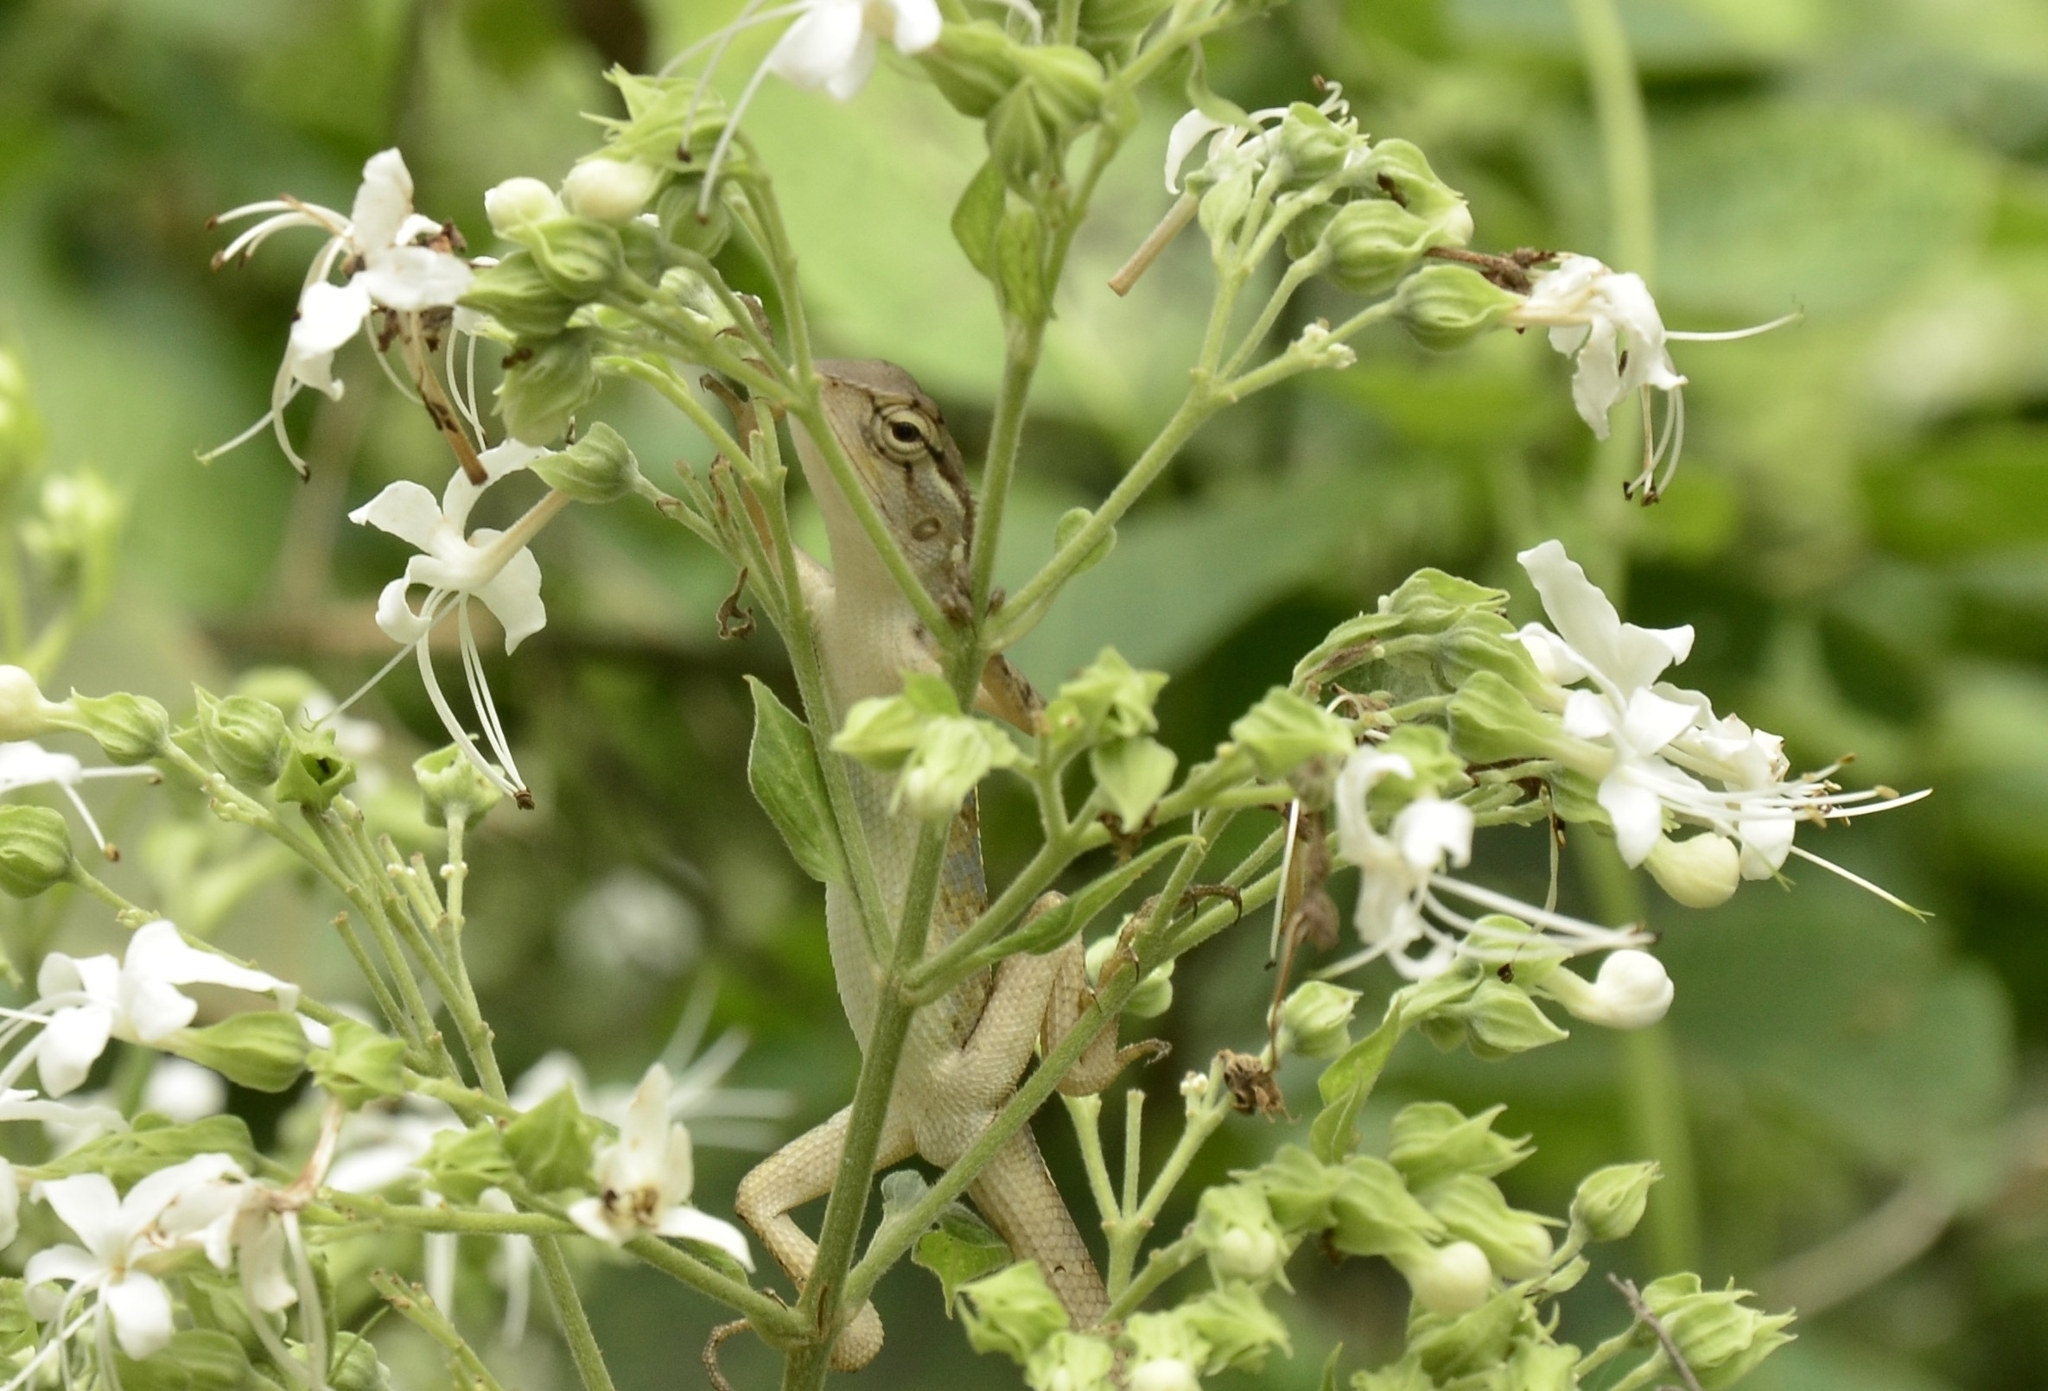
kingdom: Animalia
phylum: Chordata
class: Squamata
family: Agamidae
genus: Calotes
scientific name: Calotes versicolor
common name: Oriental garden lizard
